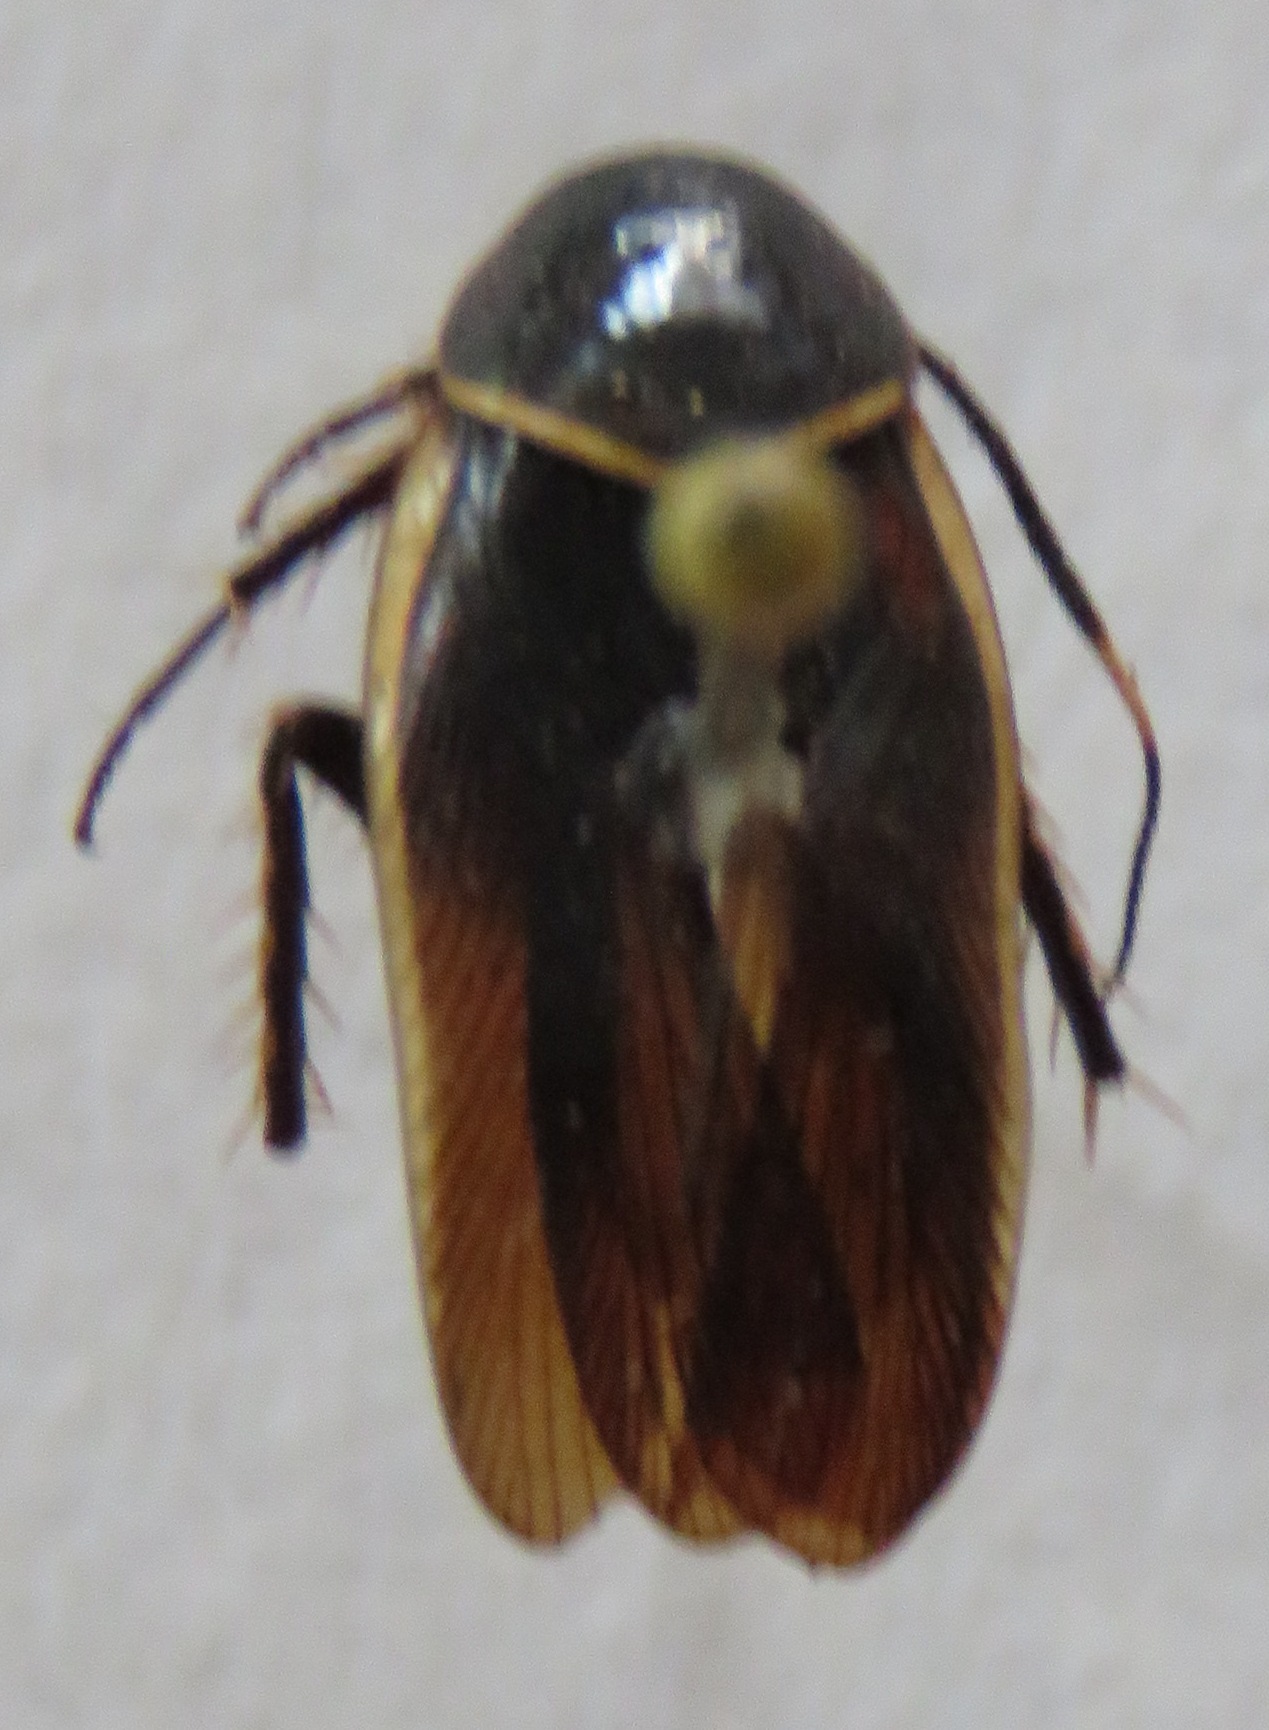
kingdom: Animalia
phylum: Arthropoda
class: Insecta
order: Blattodea
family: Ectobiidae
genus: Pseudomops
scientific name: Pseudomops cinctus
